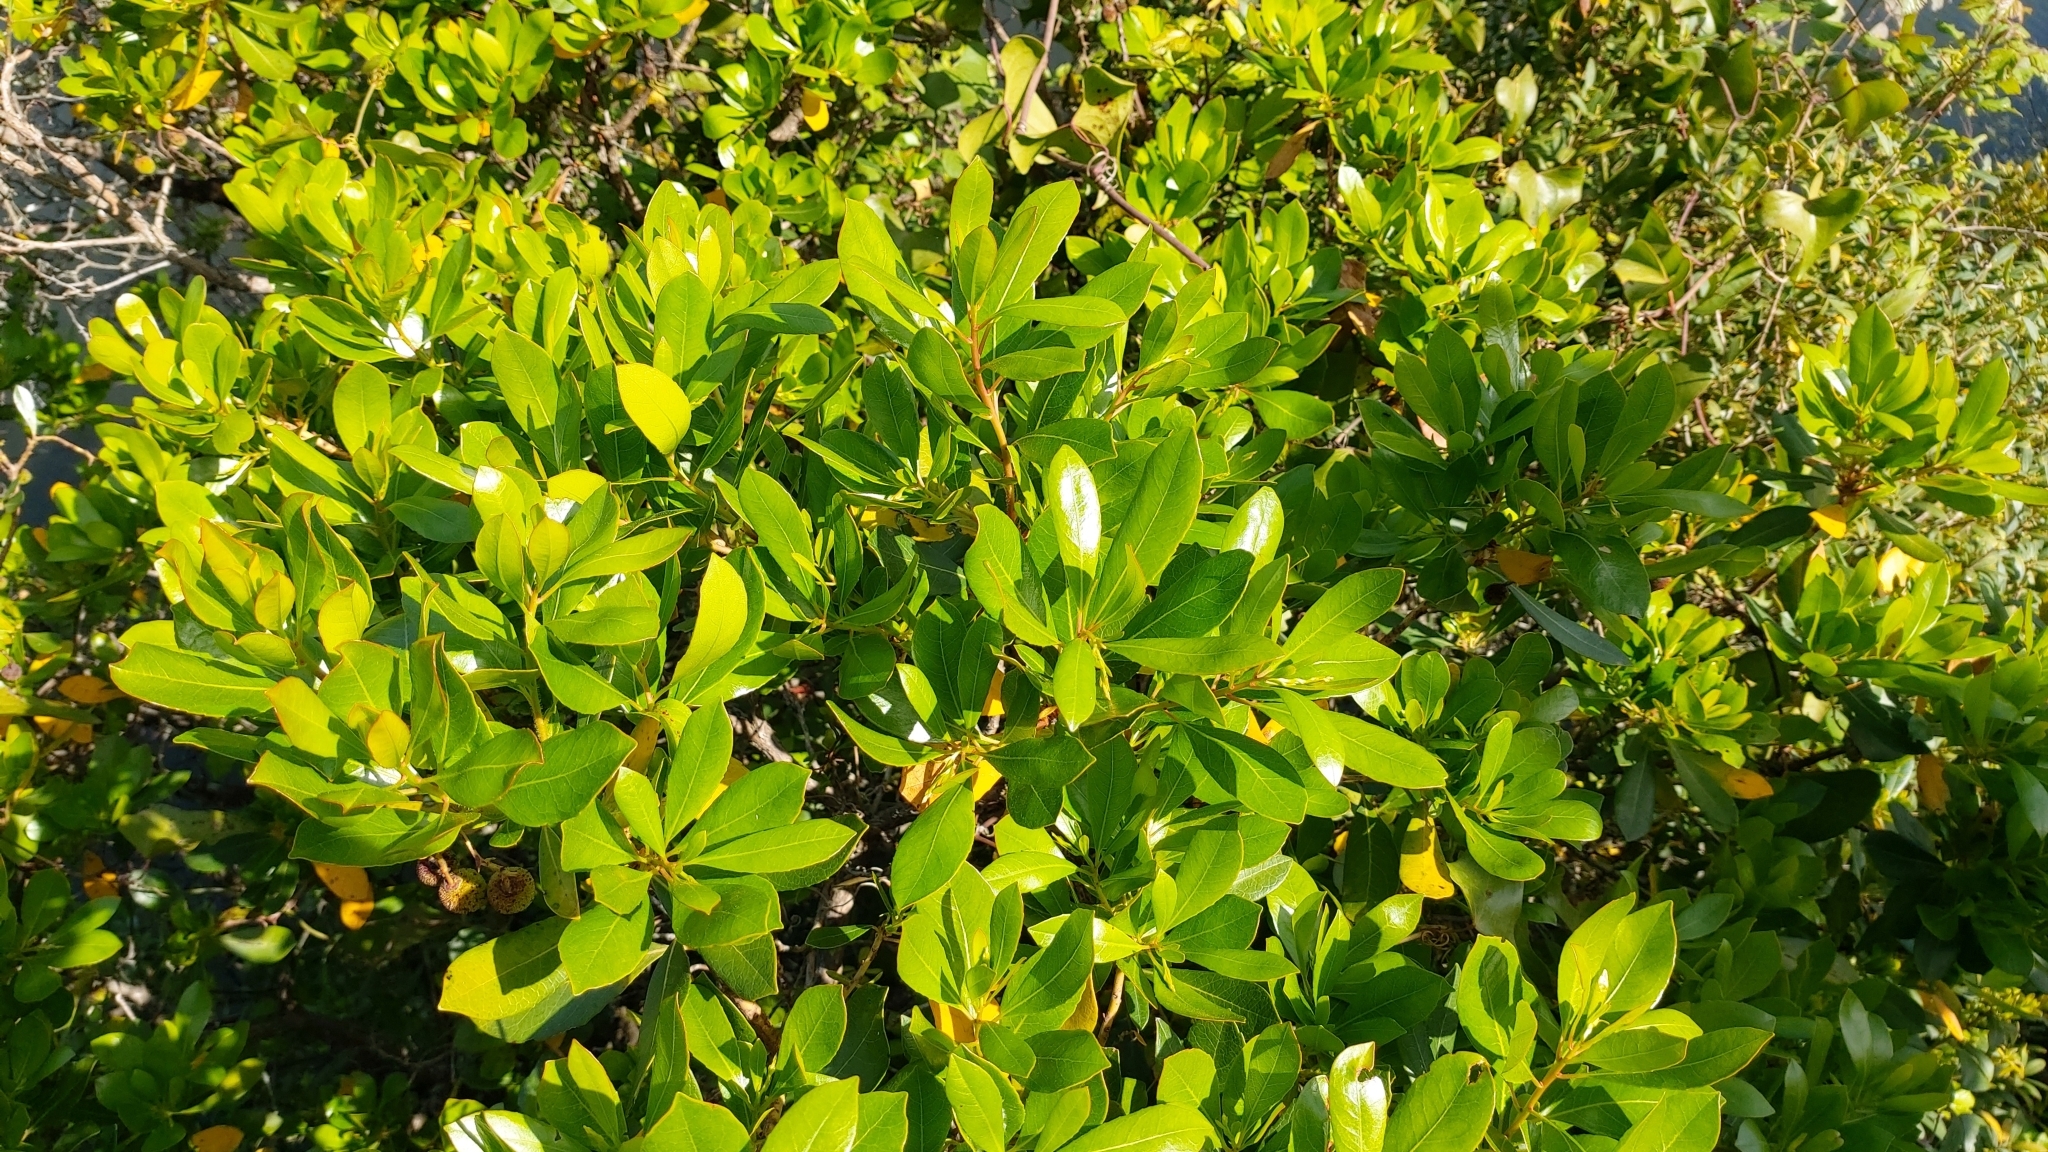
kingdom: Plantae
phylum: Tracheophyta
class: Magnoliopsida
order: Ericales
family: Ericaceae
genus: Arbutus
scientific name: Arbutus unedo
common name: Strawberry-tree
